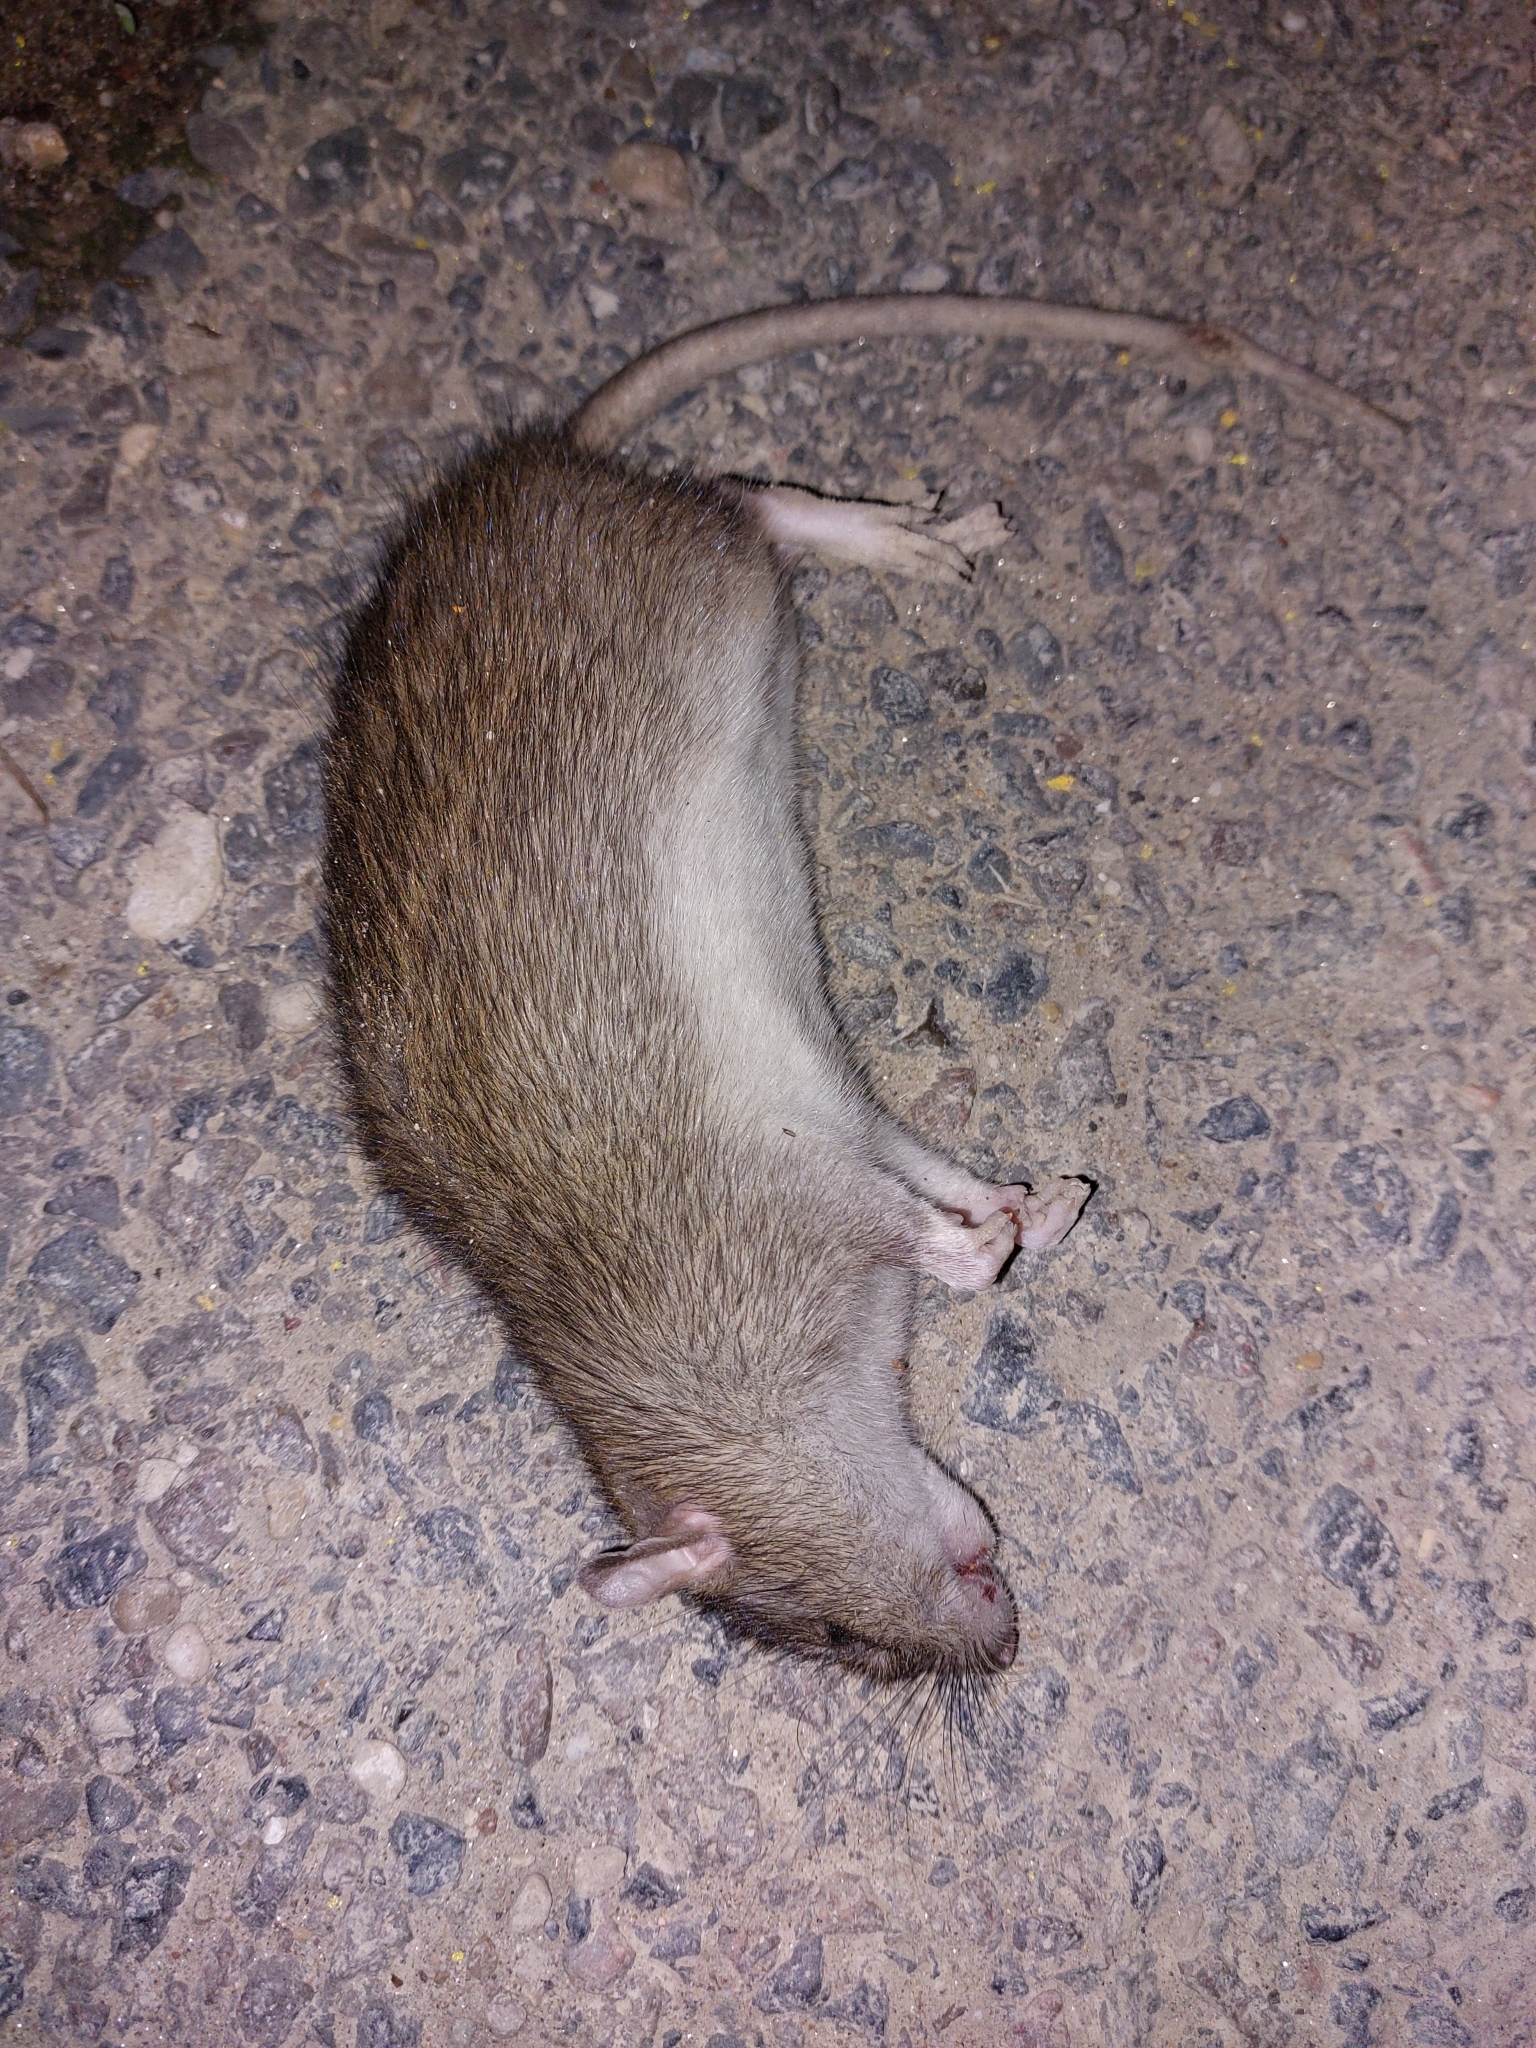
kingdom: Animalia
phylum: Chordata
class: Mammalia
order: Rodentia
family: Muridae
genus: Rattus
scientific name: Rattus norvegicus
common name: Brown rat
